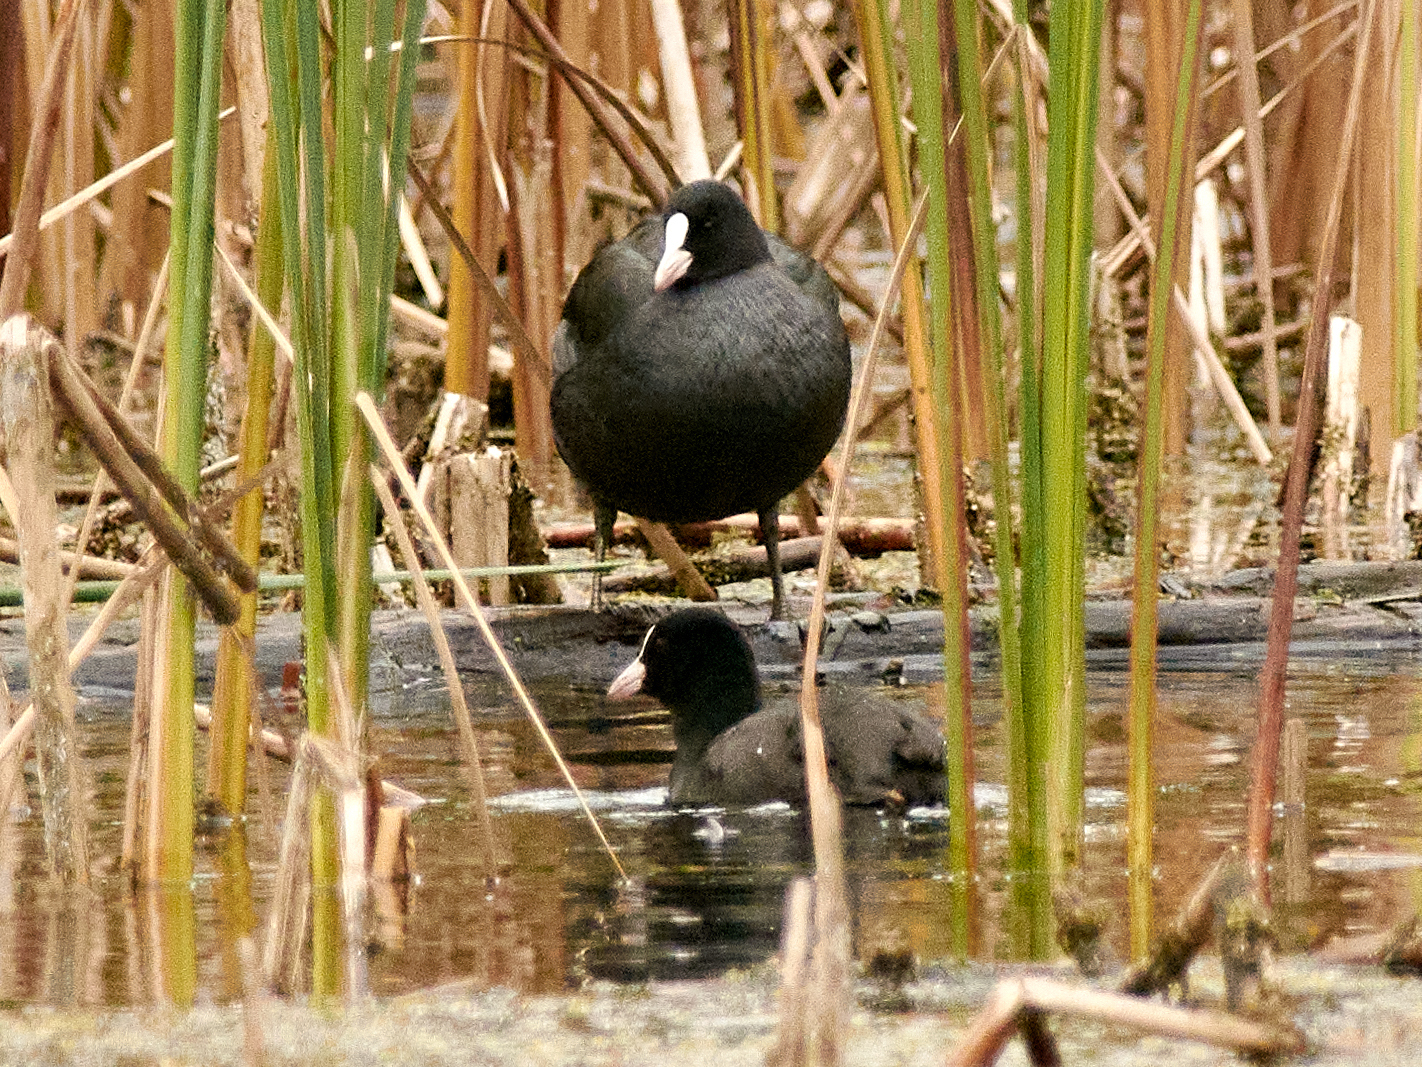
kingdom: Animalia
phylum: Chordata
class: Aves
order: Gruiformes
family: Rallidae
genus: Fulica
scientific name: Fulica atra
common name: Eurasian coot
